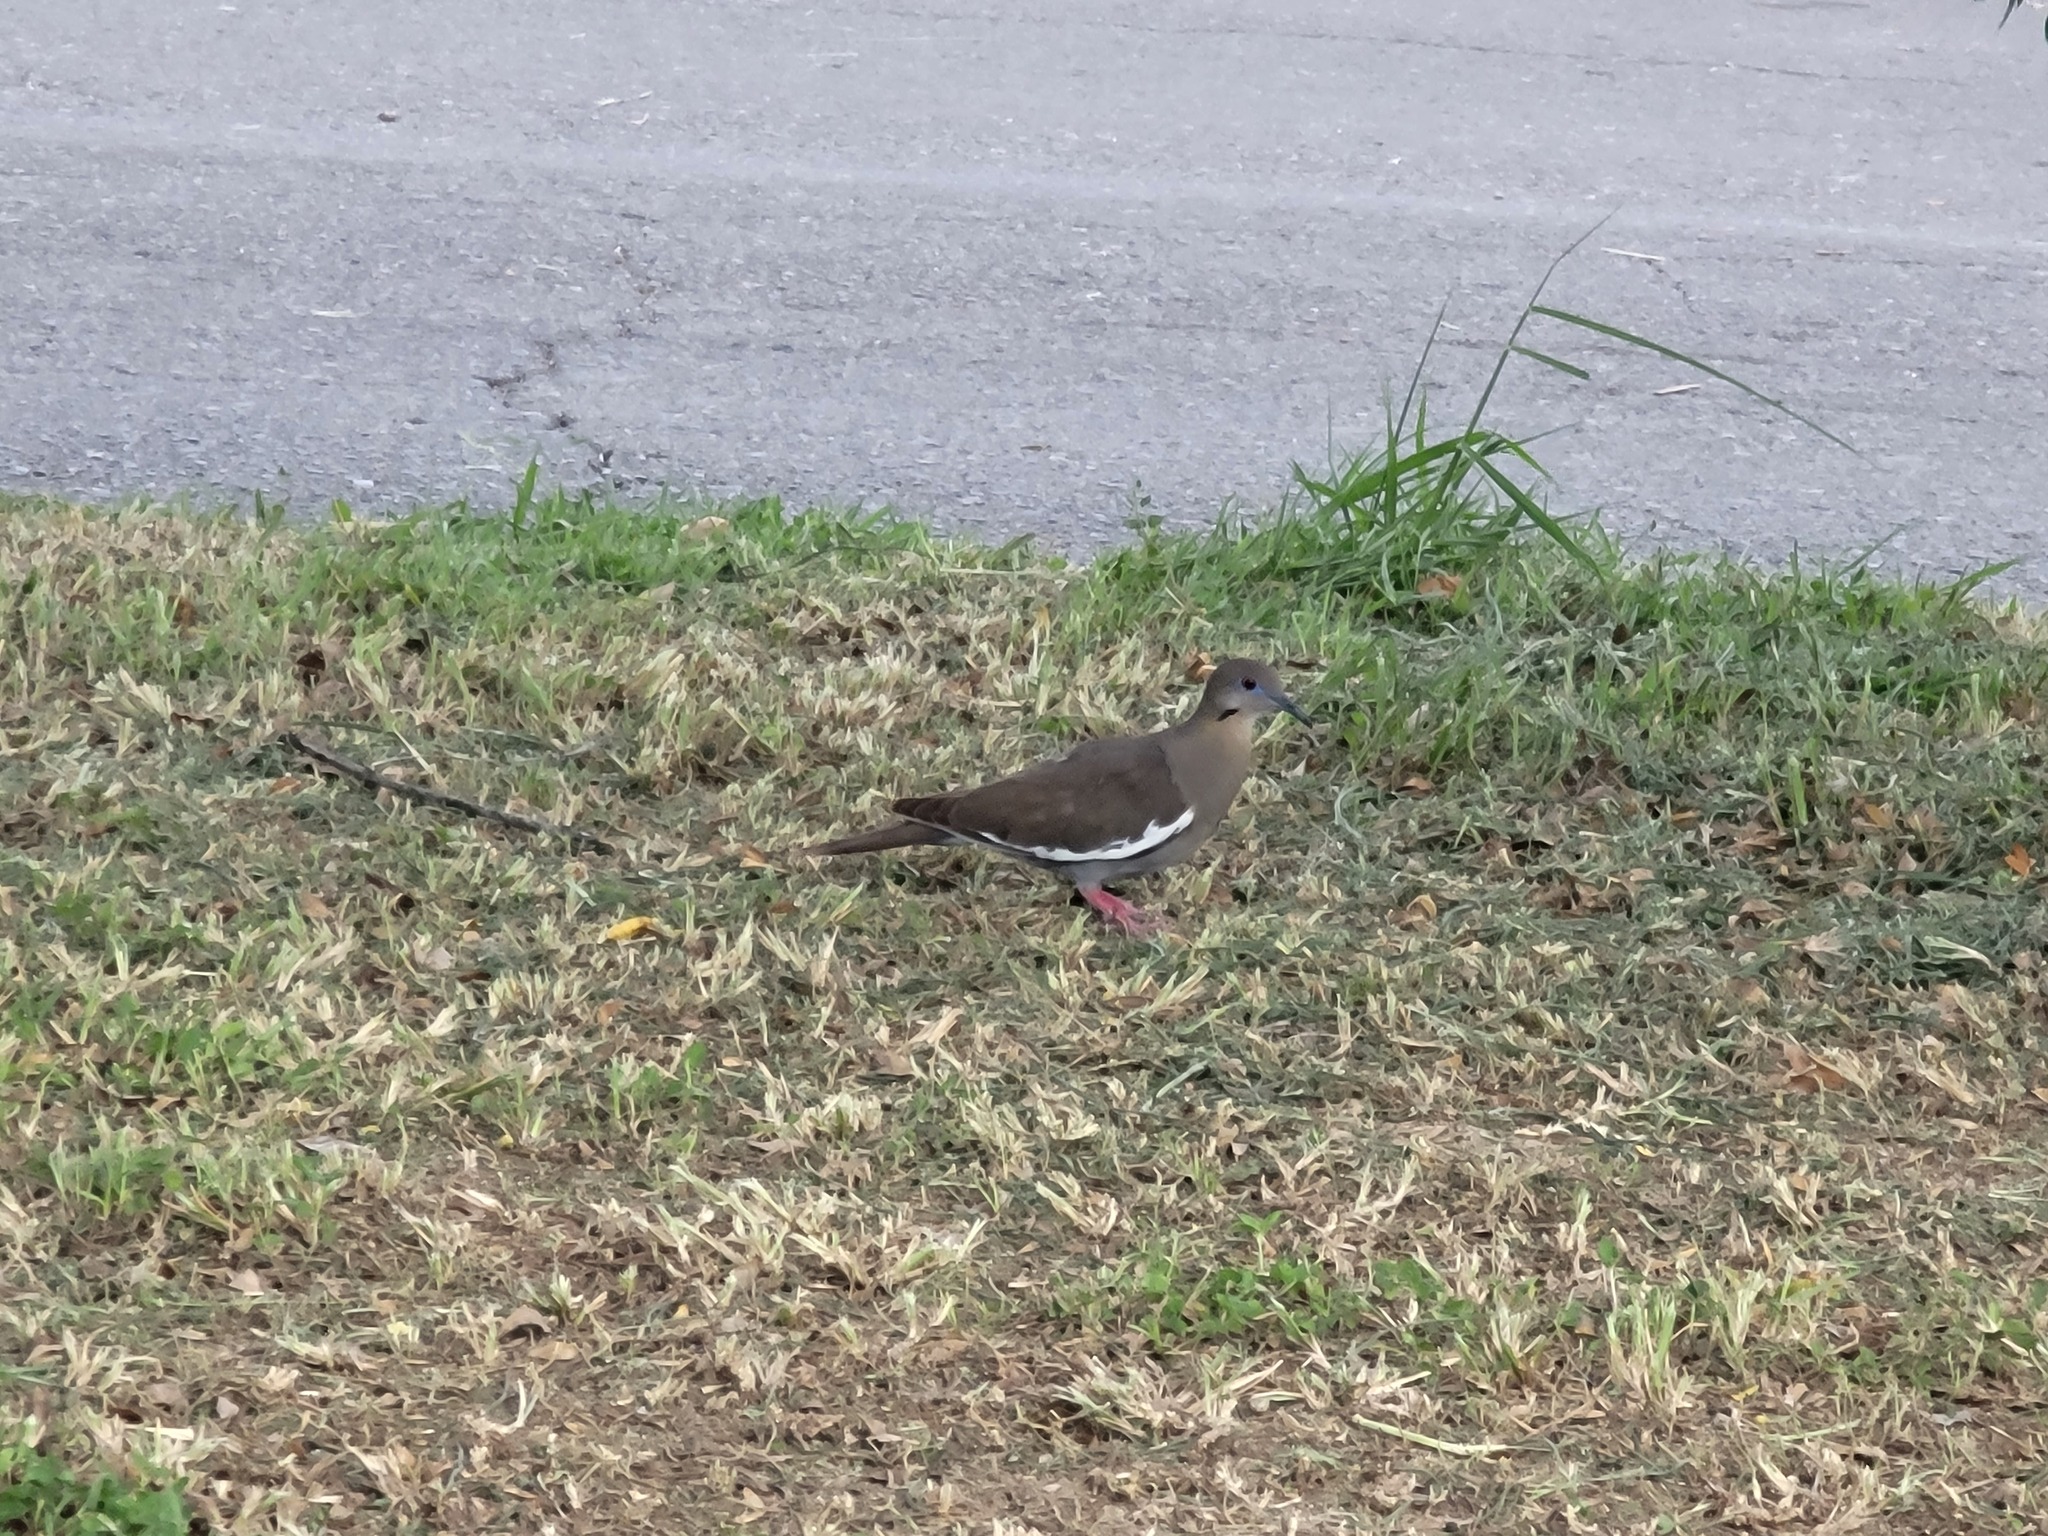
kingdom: Animalia
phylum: Chordata
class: Aves
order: Columbiformes
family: Columbidae
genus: Zenaida
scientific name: Zenaida asiatica
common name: White-winged dove
